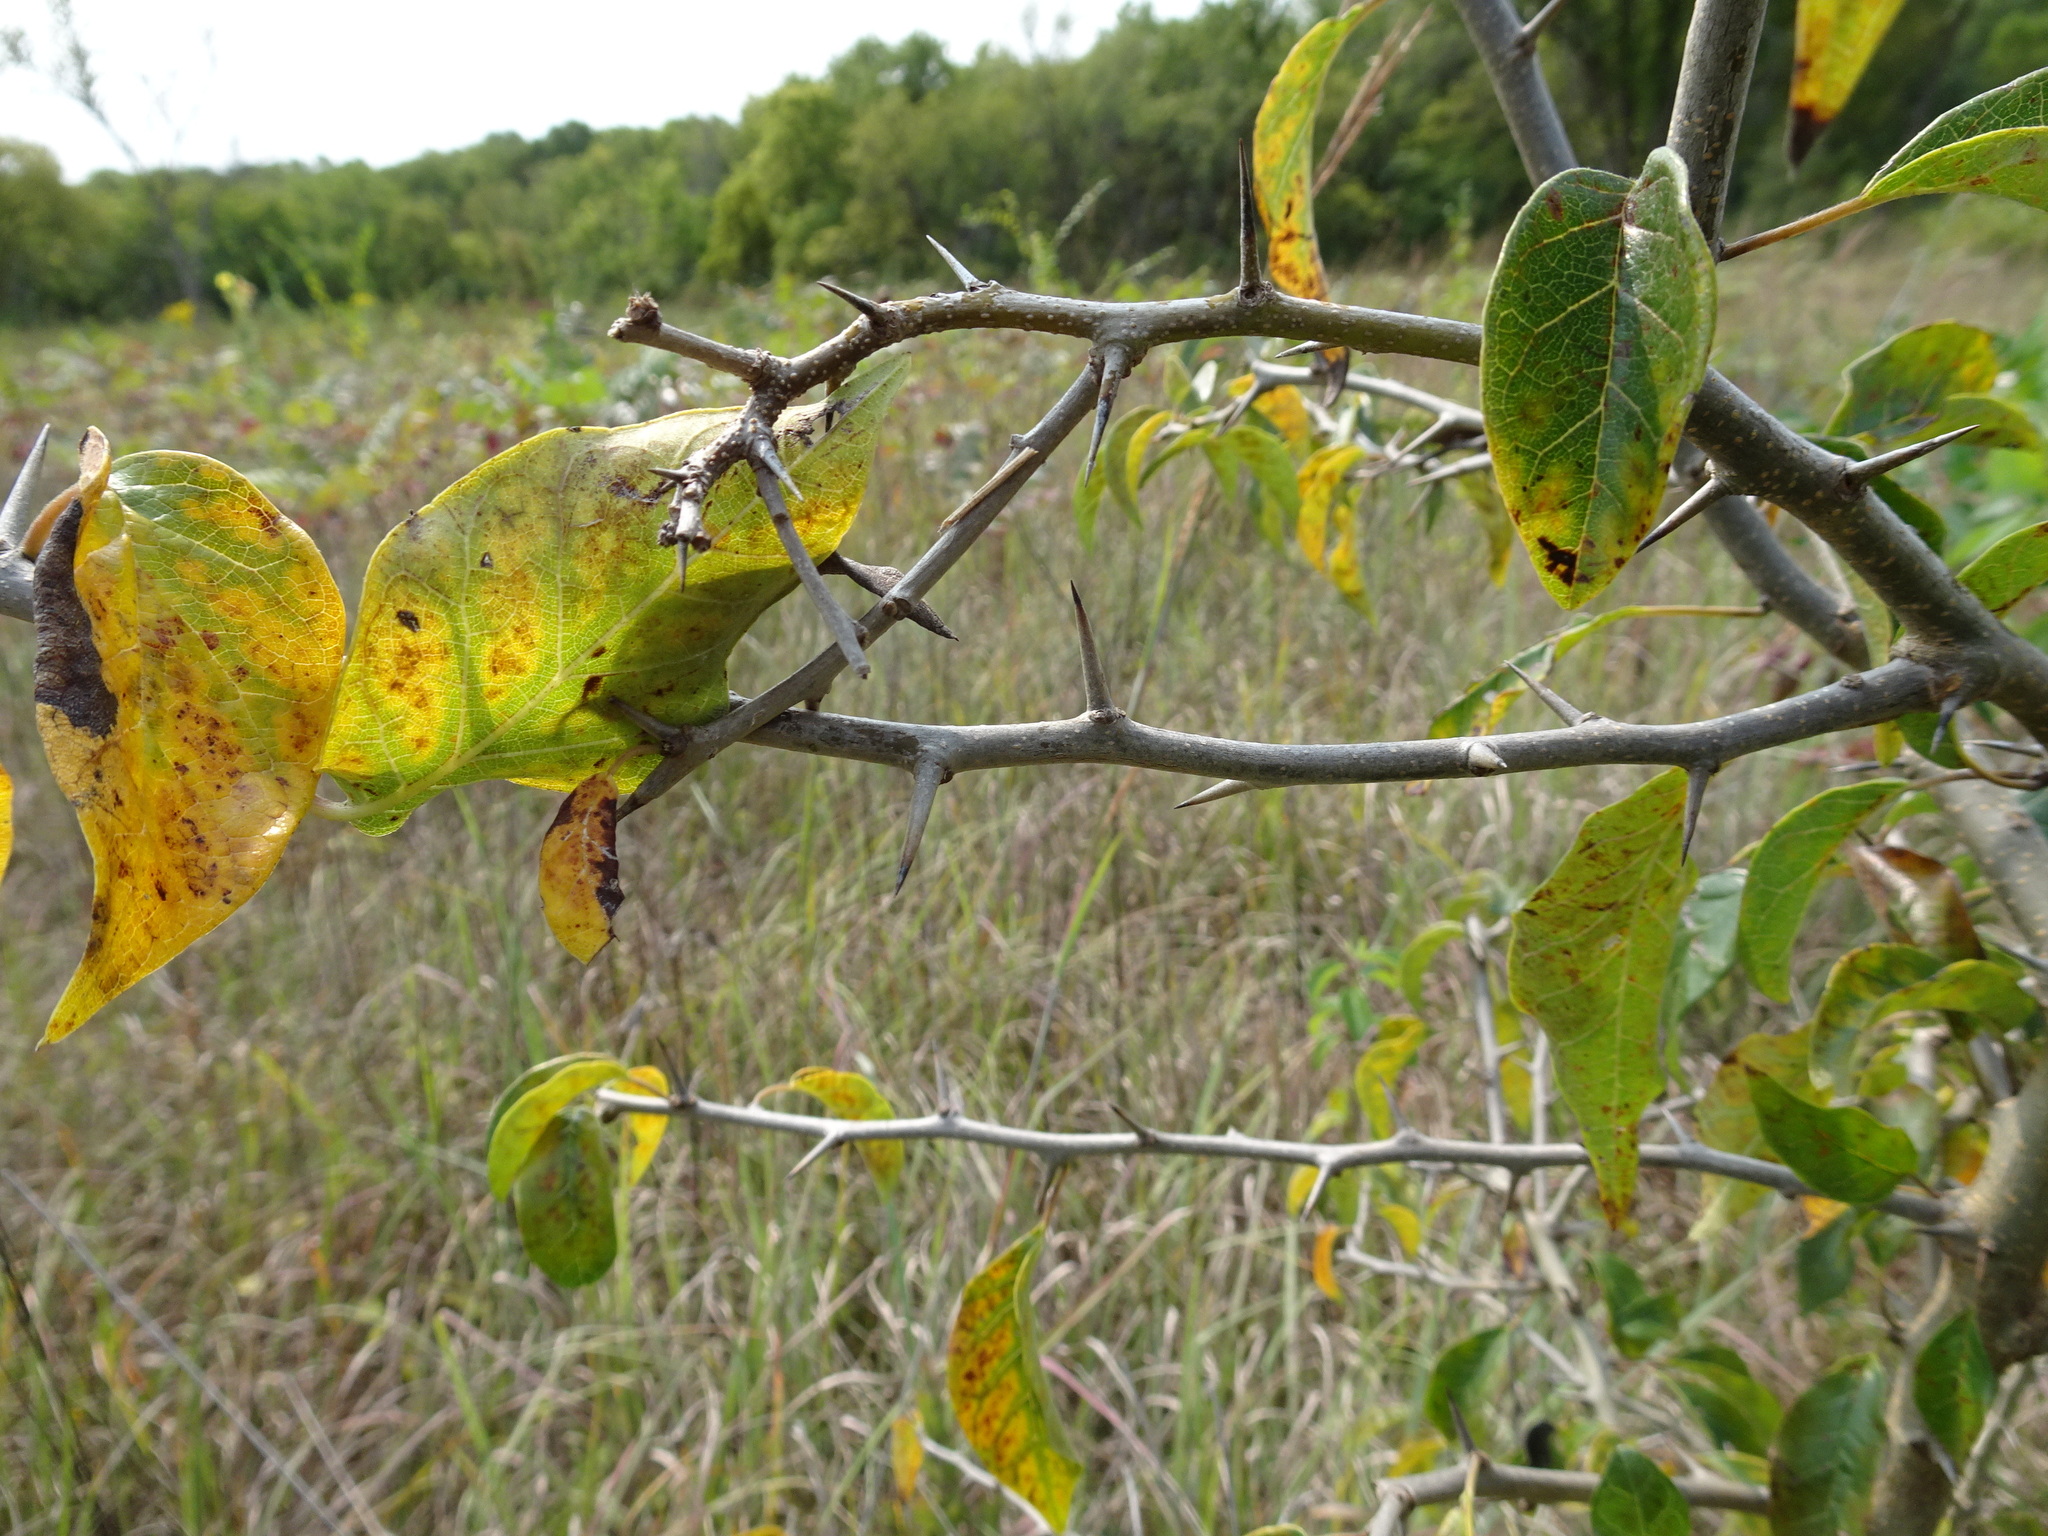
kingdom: Plantae
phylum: Tracheophyta
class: Magnoliopsida
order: Rosales
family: Moraceae
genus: Maclura
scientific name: Maclura pomifera
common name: Osage-orange
